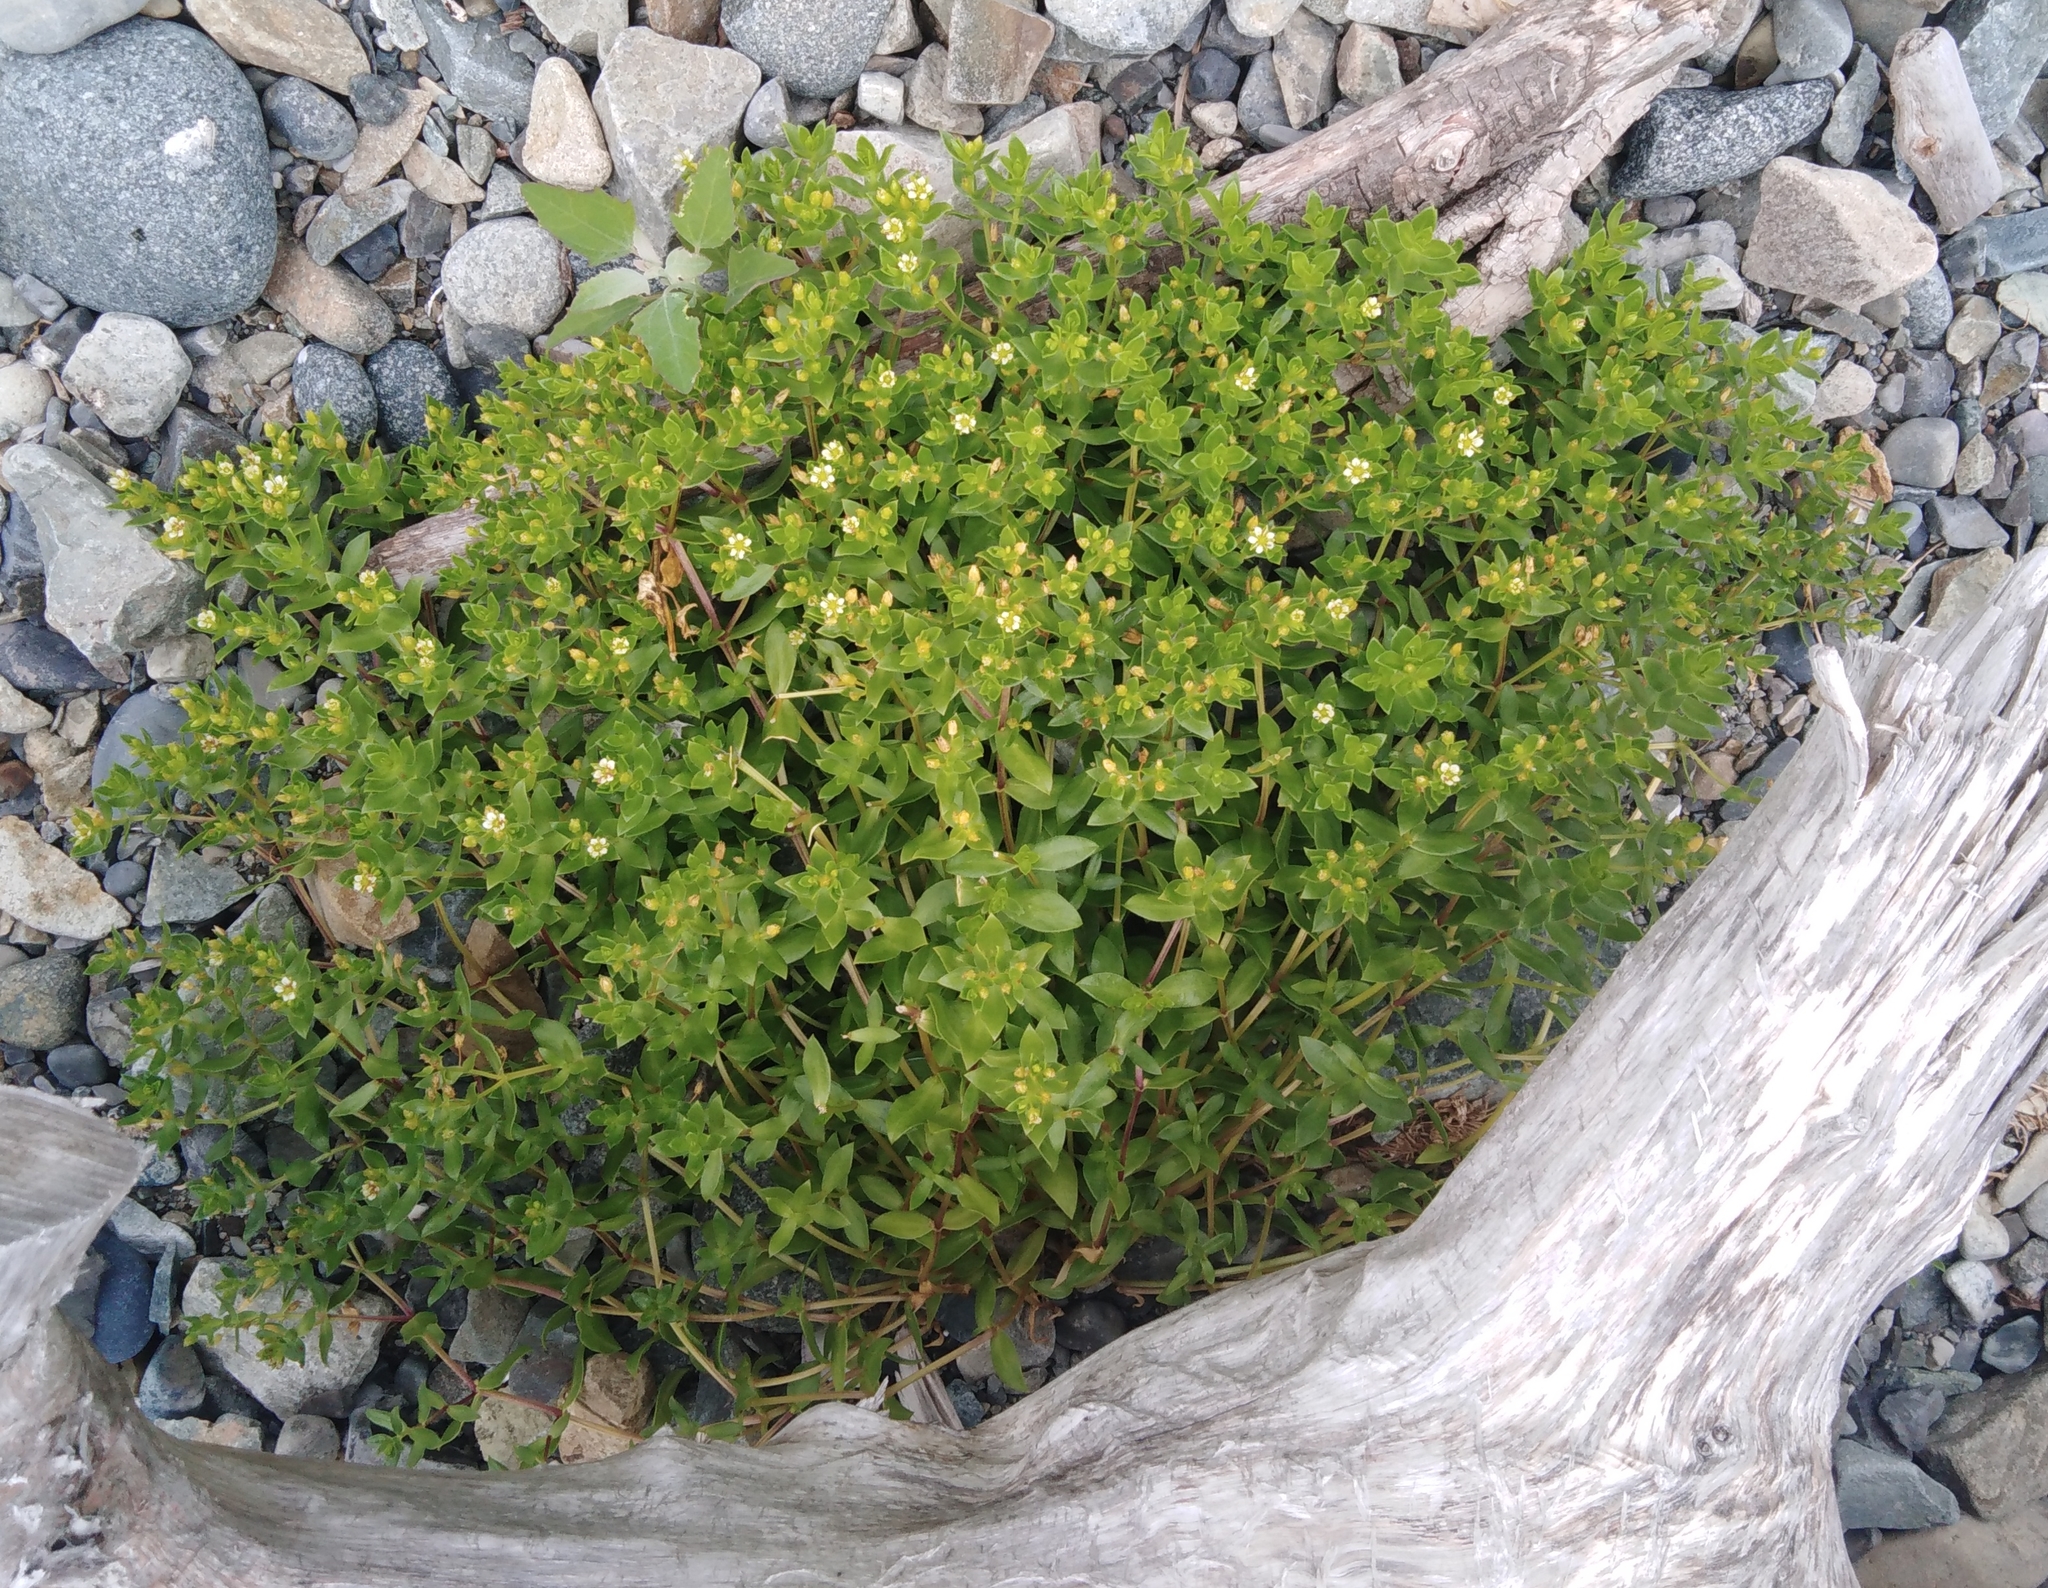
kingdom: Plantae
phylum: Tracheophyta
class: Magnoliopsida
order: Caryophyllales
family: Caryophyllaceae
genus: Honckenya
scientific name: Honckenya peploides
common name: Sea sandwort
